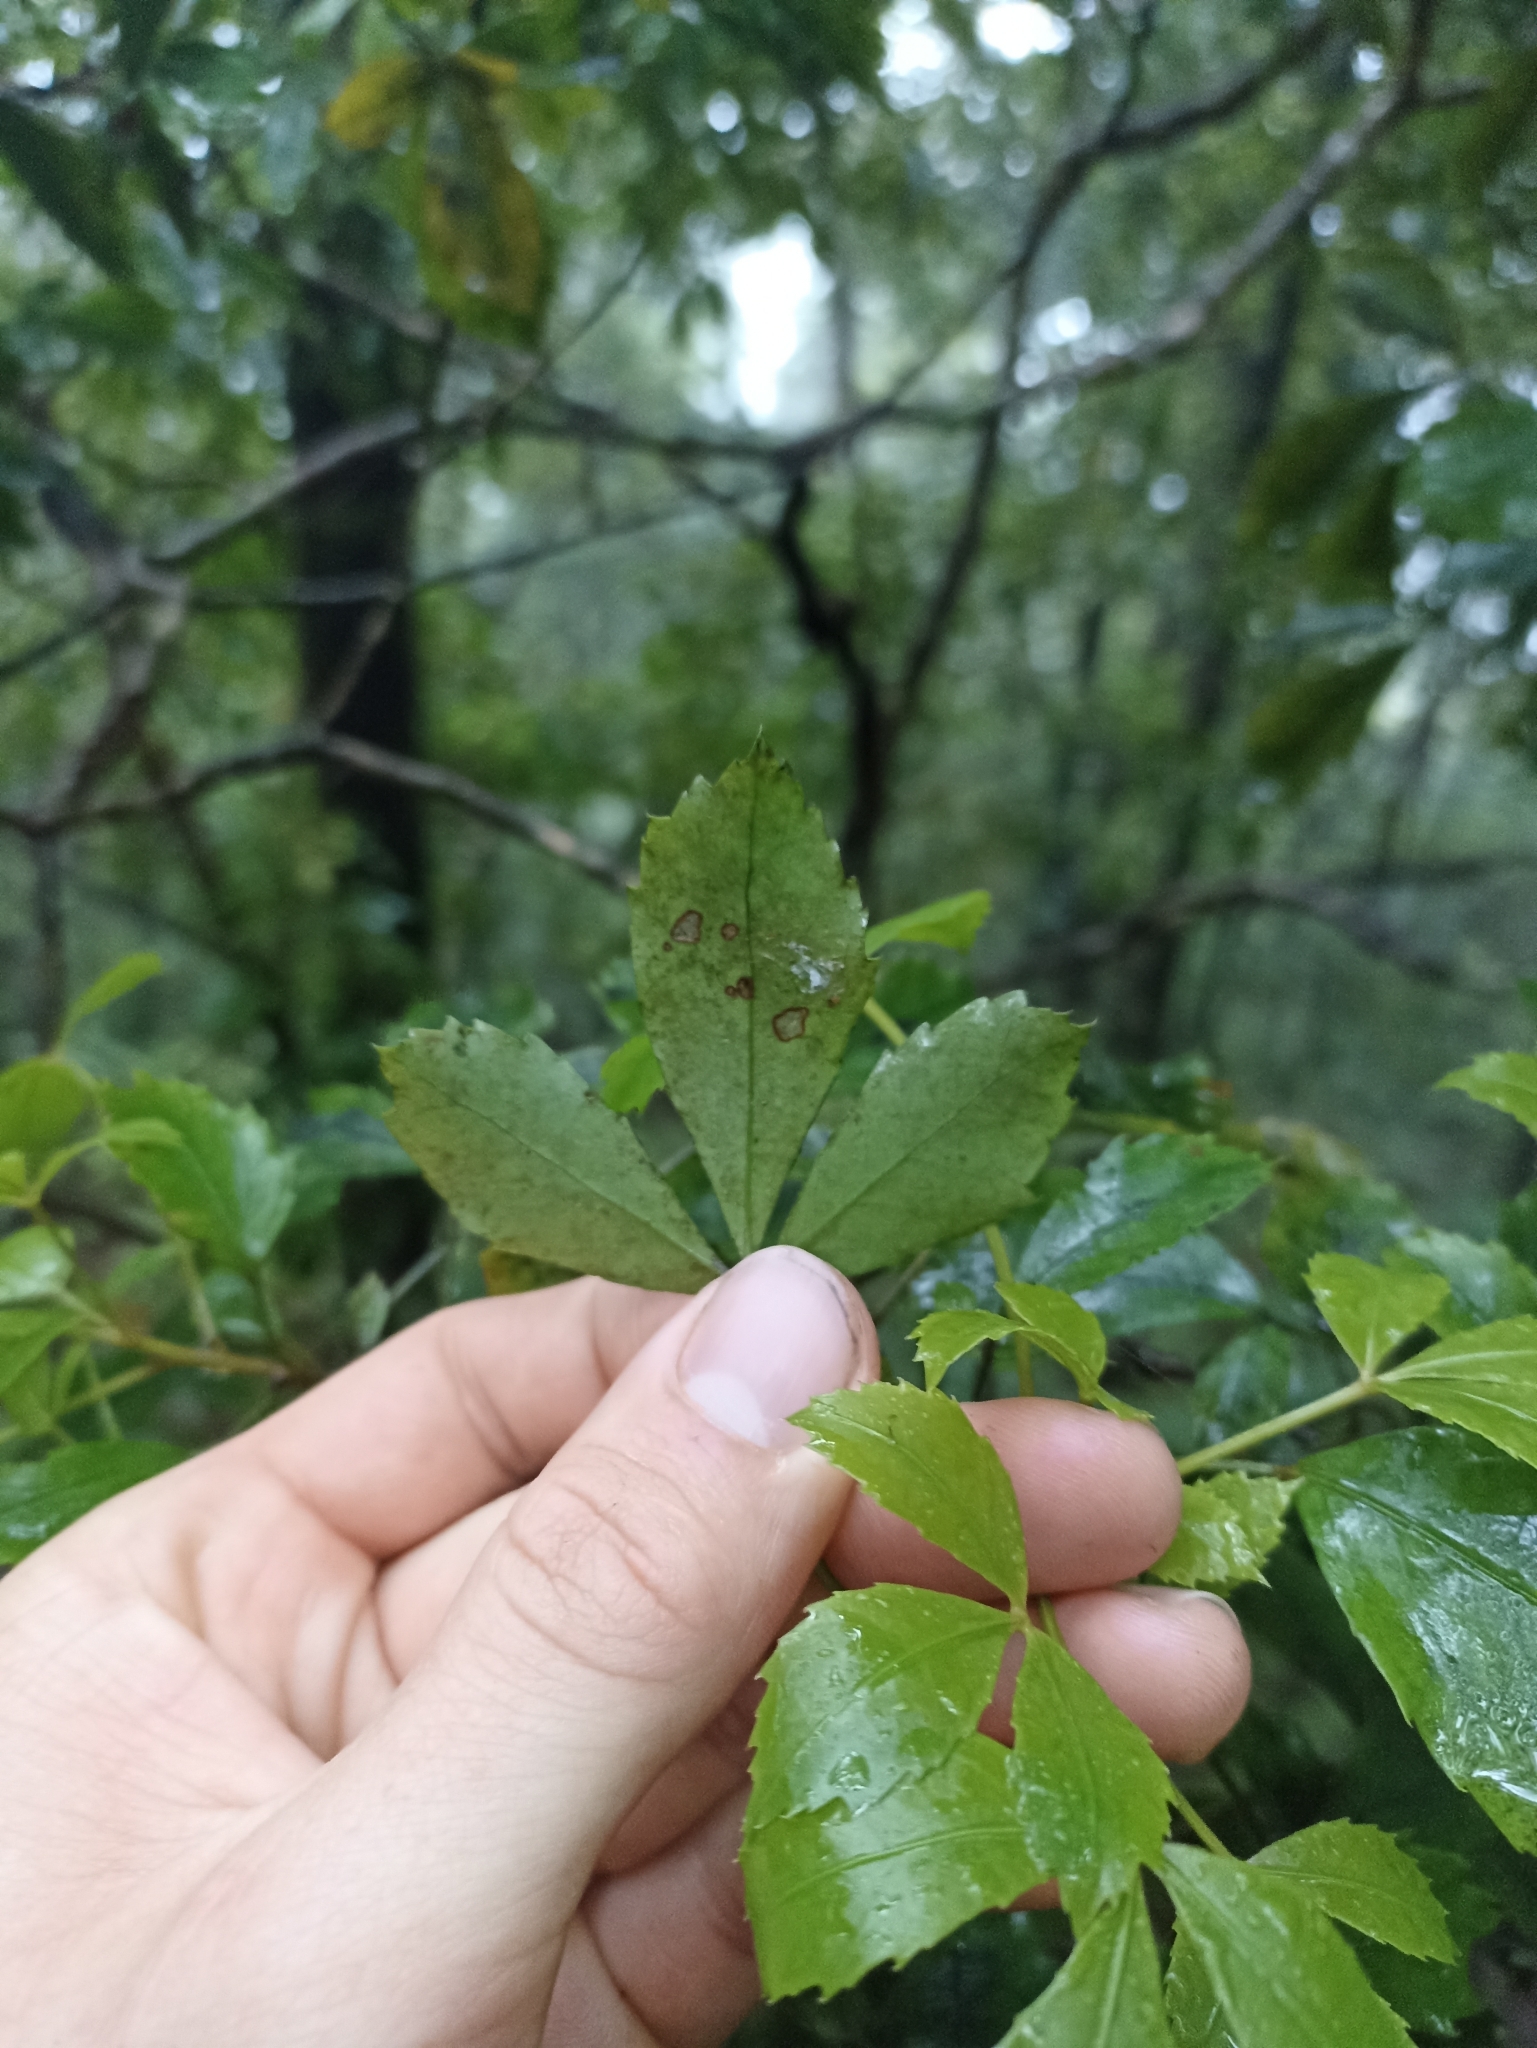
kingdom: Plantae
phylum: Tracheophyta
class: Magnoliopsida
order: Apiales
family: Araliaceae
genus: Pseudopanax
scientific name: Pseudopanax discolor
